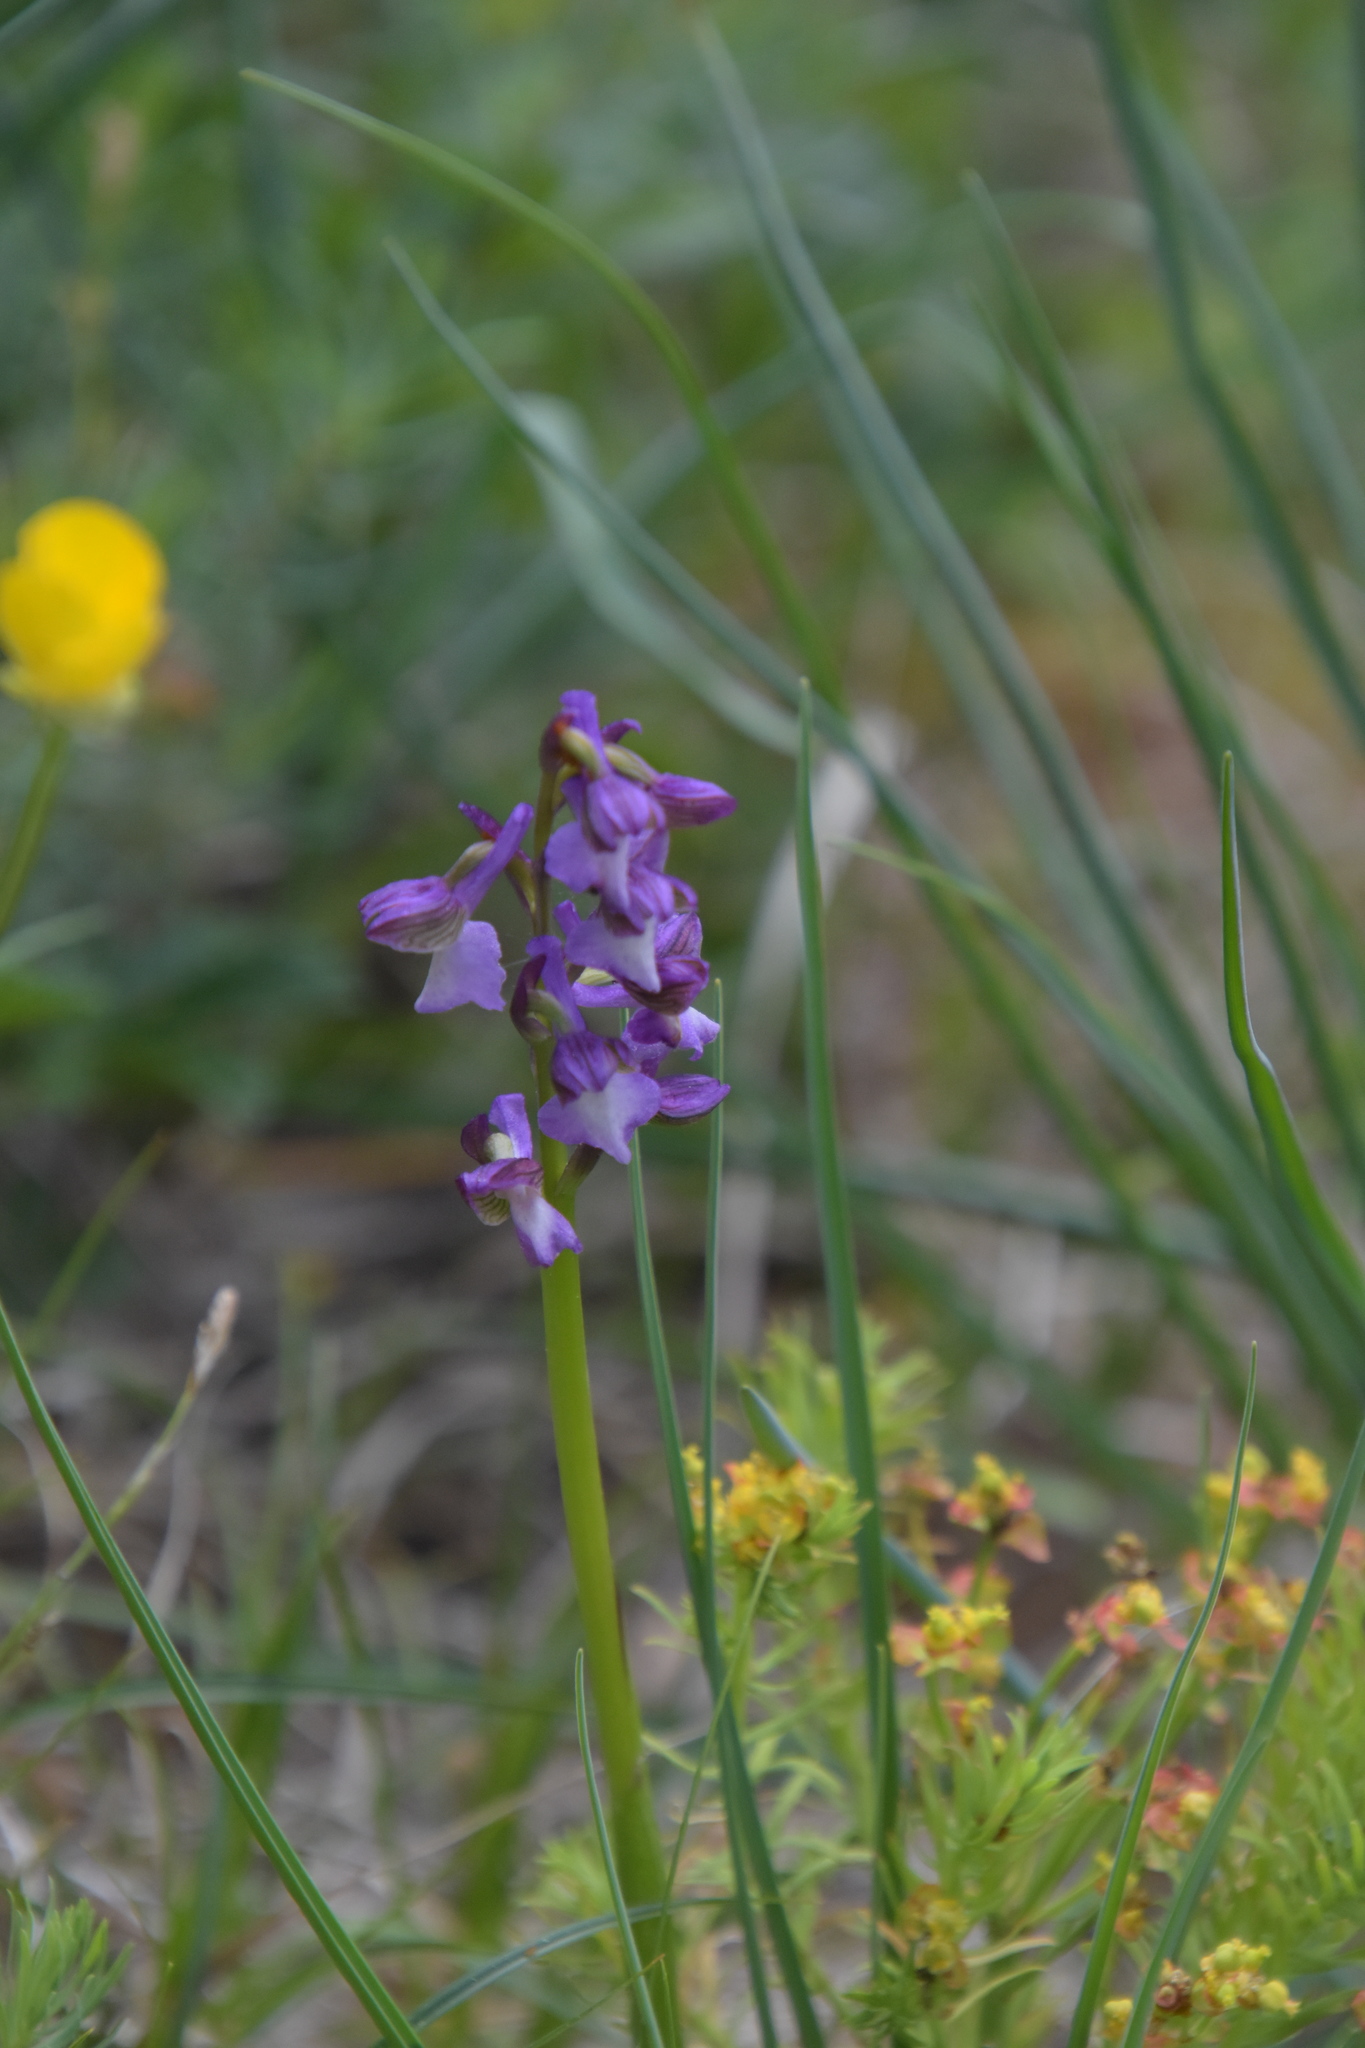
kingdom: Plantae
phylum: Tracheophyta
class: Liliopsida
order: Asparagales
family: Orchidaceae
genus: Anacamptis
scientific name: Anacamptis morio
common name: Green-winged orchid
